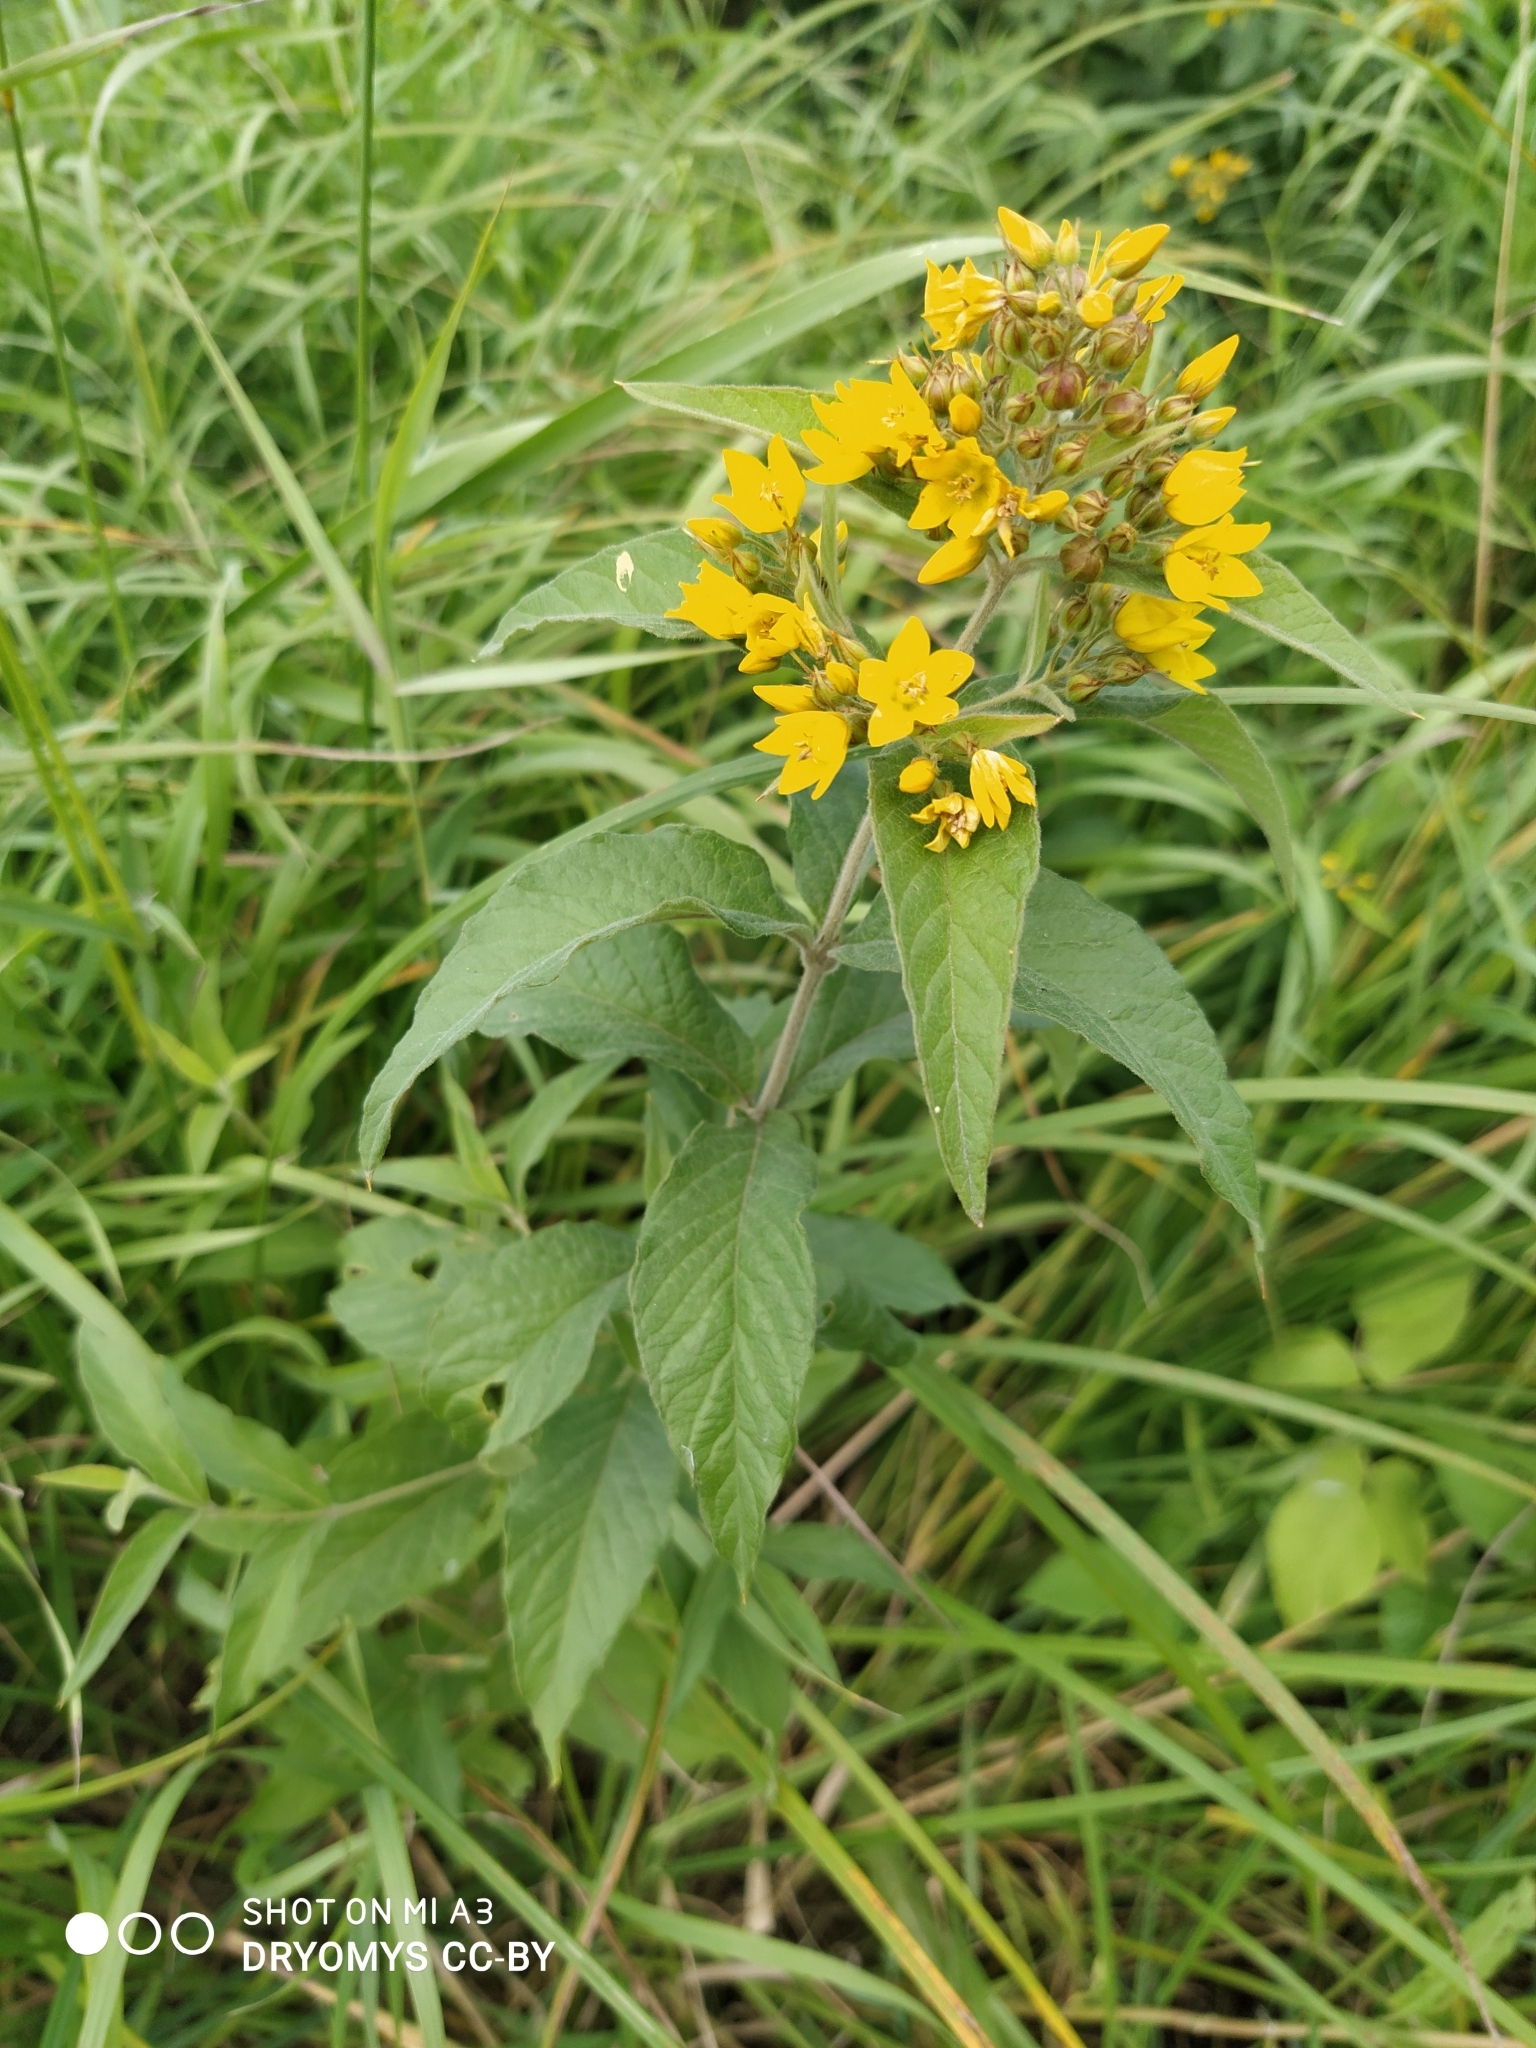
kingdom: Plantae
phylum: Tracheophyta
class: Magnoliopsida
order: Ericales
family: Primulaceae
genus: Lysimachia
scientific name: Lysimachia vulgaris
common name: Yellow loosestrife
